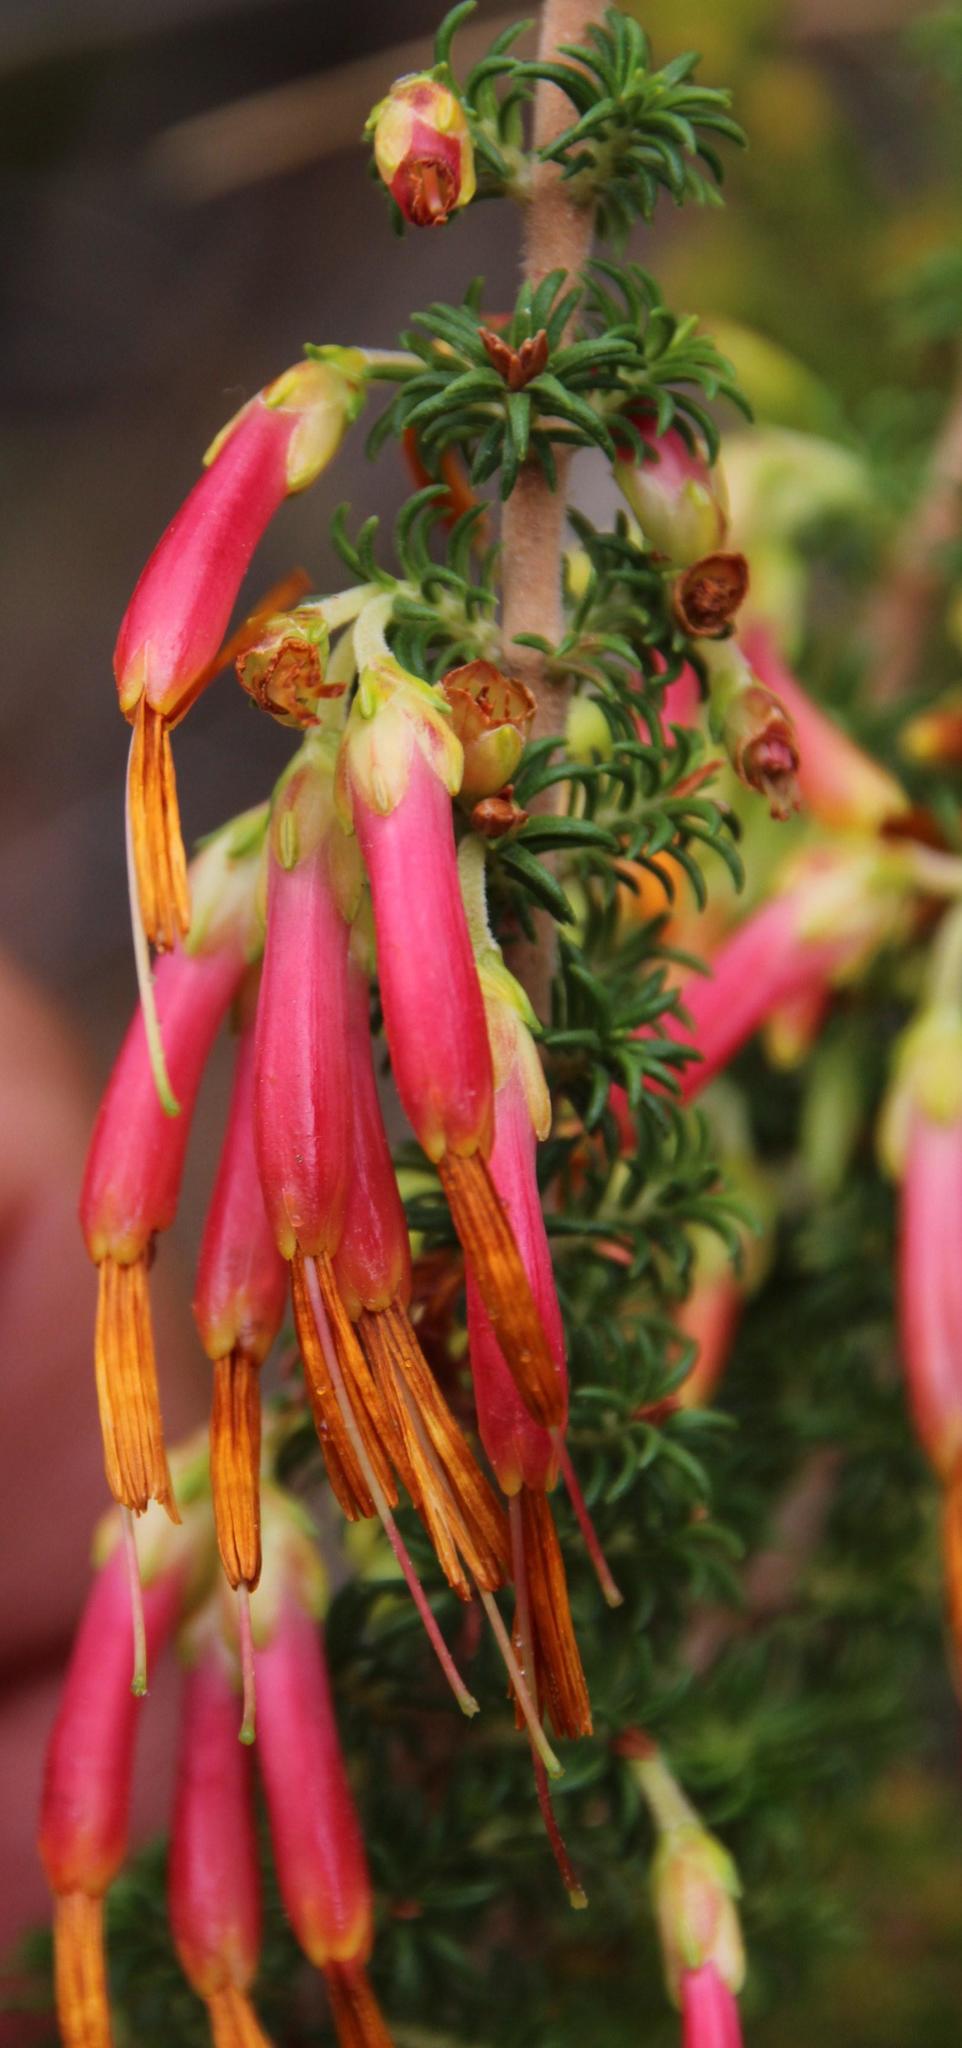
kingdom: Plantae
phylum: Tracheophyta
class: Magnoliopsida
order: Ericales
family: Ericaceae
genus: Erica
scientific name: Erica coccinea
